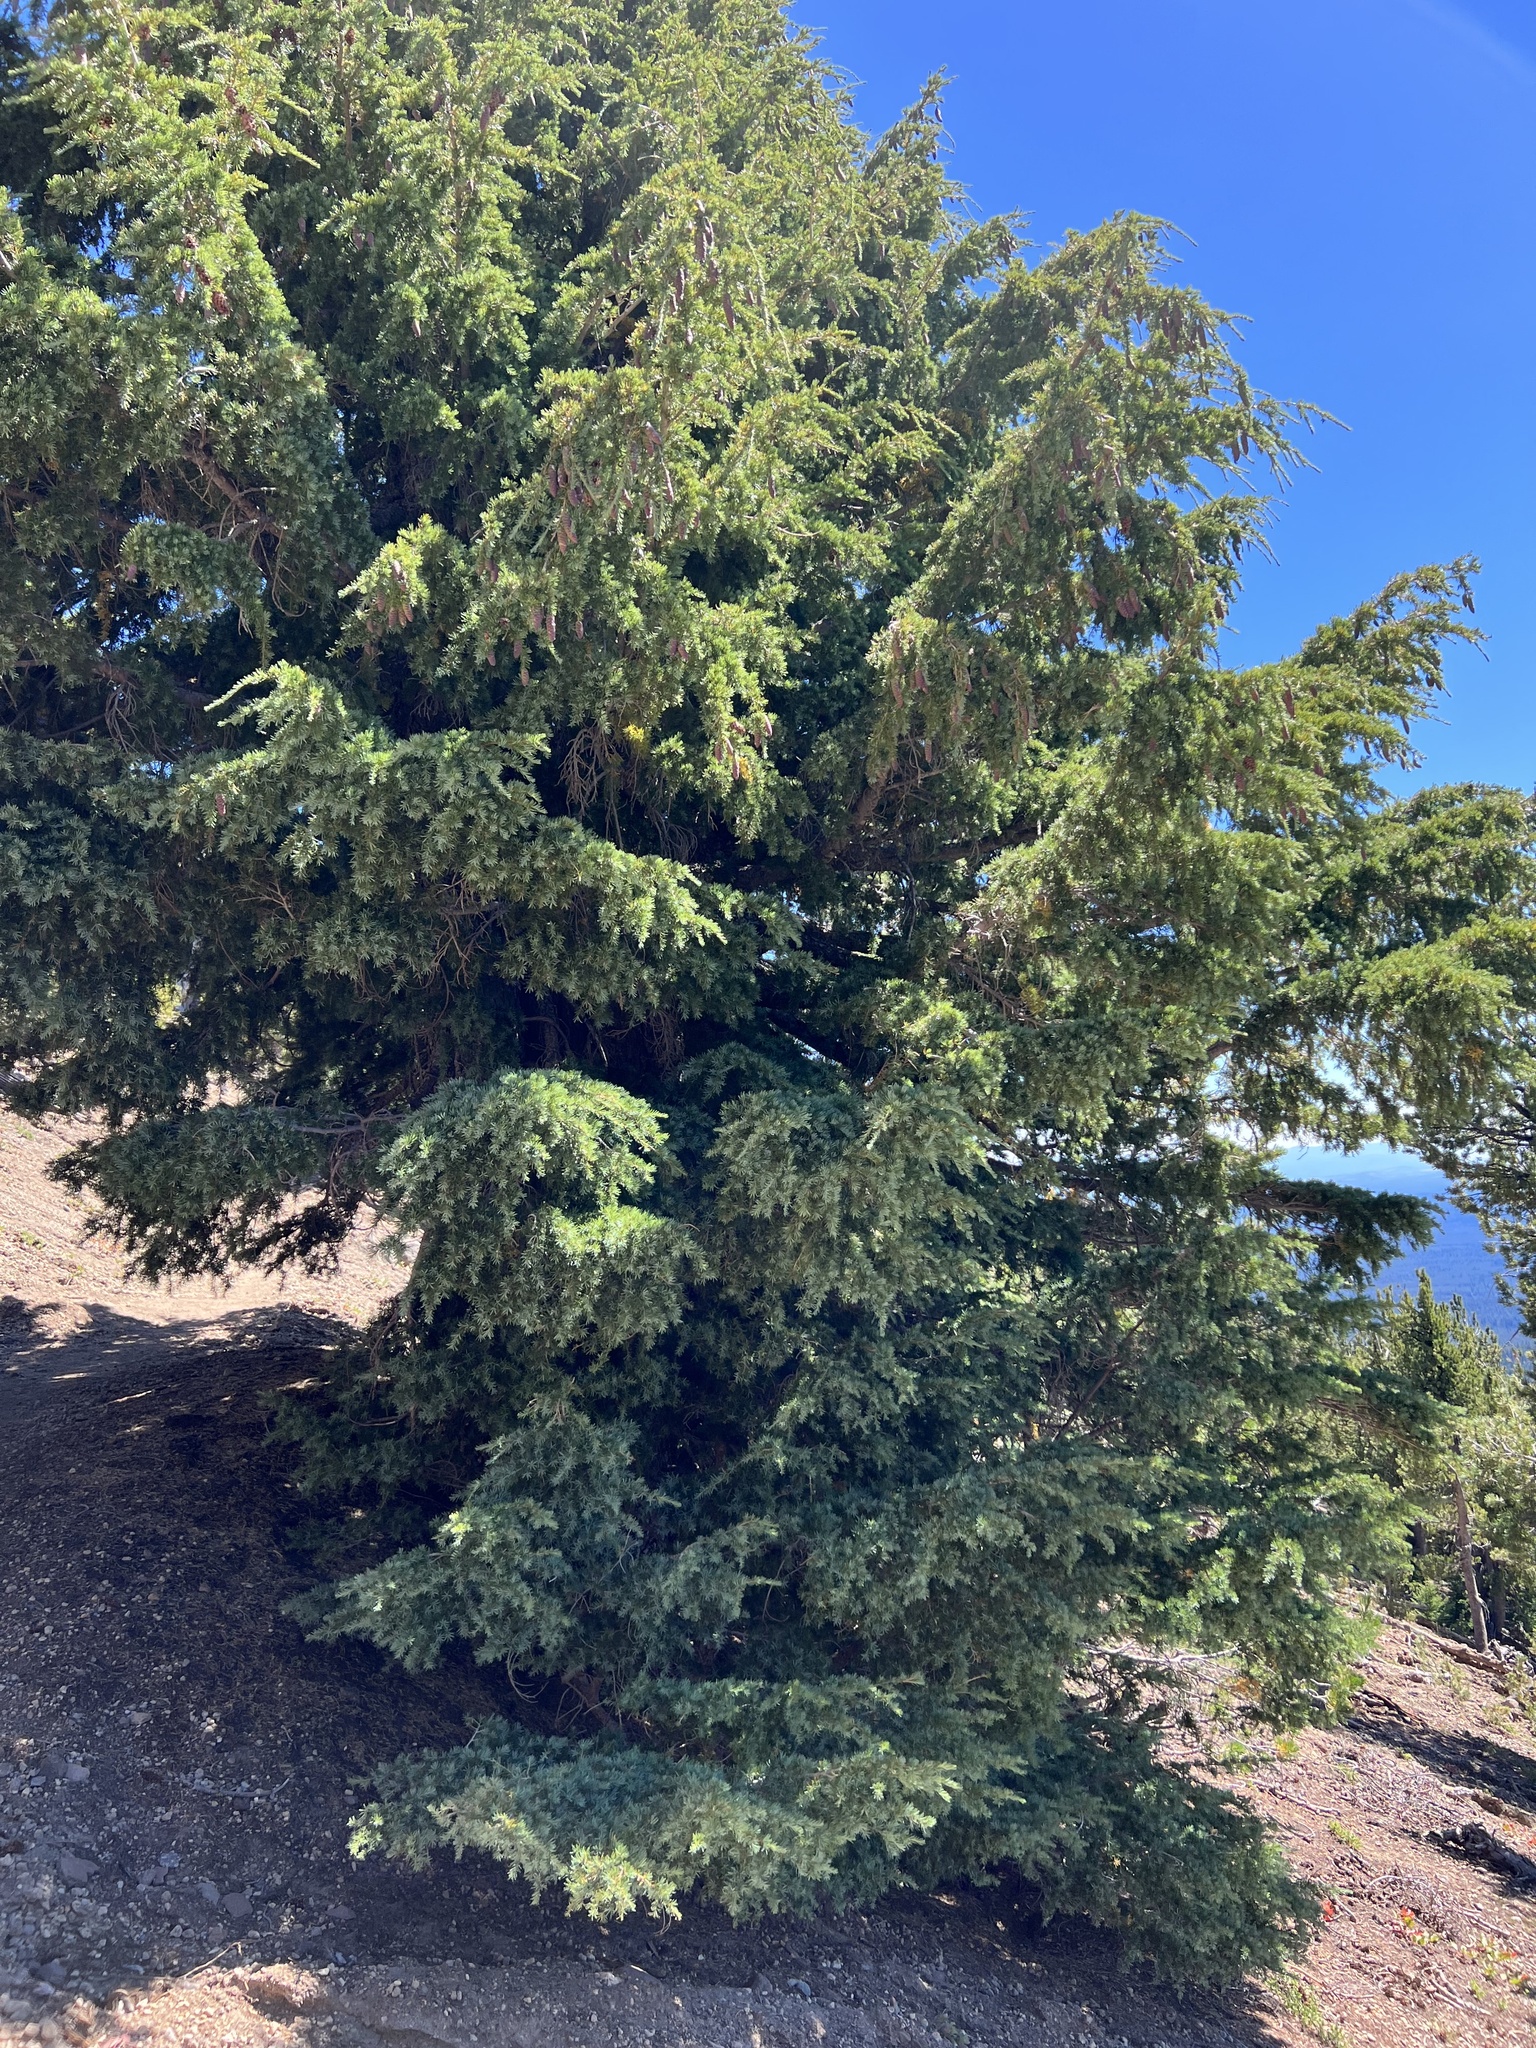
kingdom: Plantae
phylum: Tracheophyta
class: Pinopsida
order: Pinales
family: Pinaceae
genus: Tsuga
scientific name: Tsuga mertensiana
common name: Mountain hemlock
